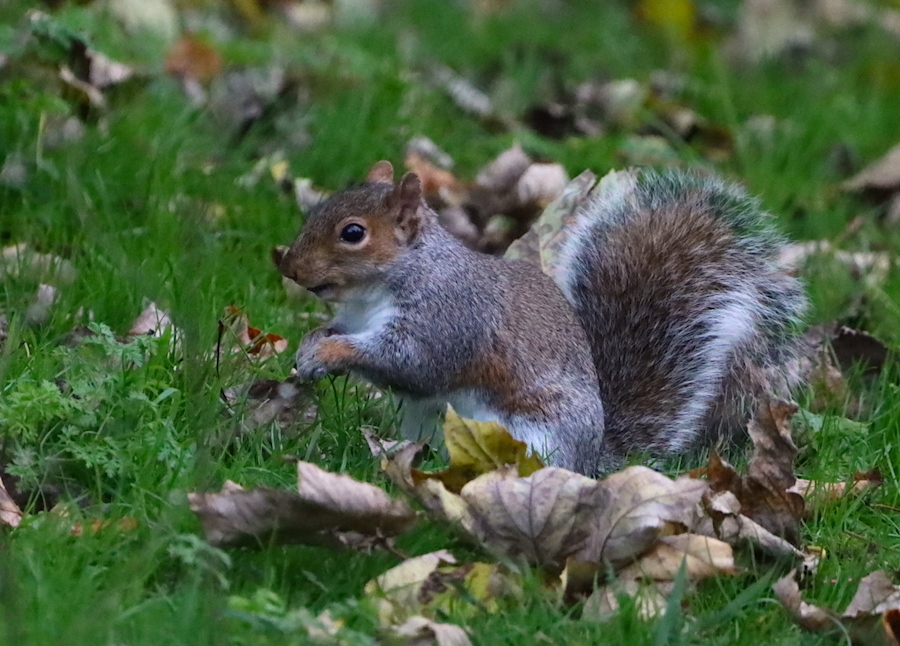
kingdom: Animalia
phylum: Chordata
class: Mammalia
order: Rodentia
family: Sciuridae
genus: Sciurus
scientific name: Sciurus carolinensis
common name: Eastern gray squirrel
